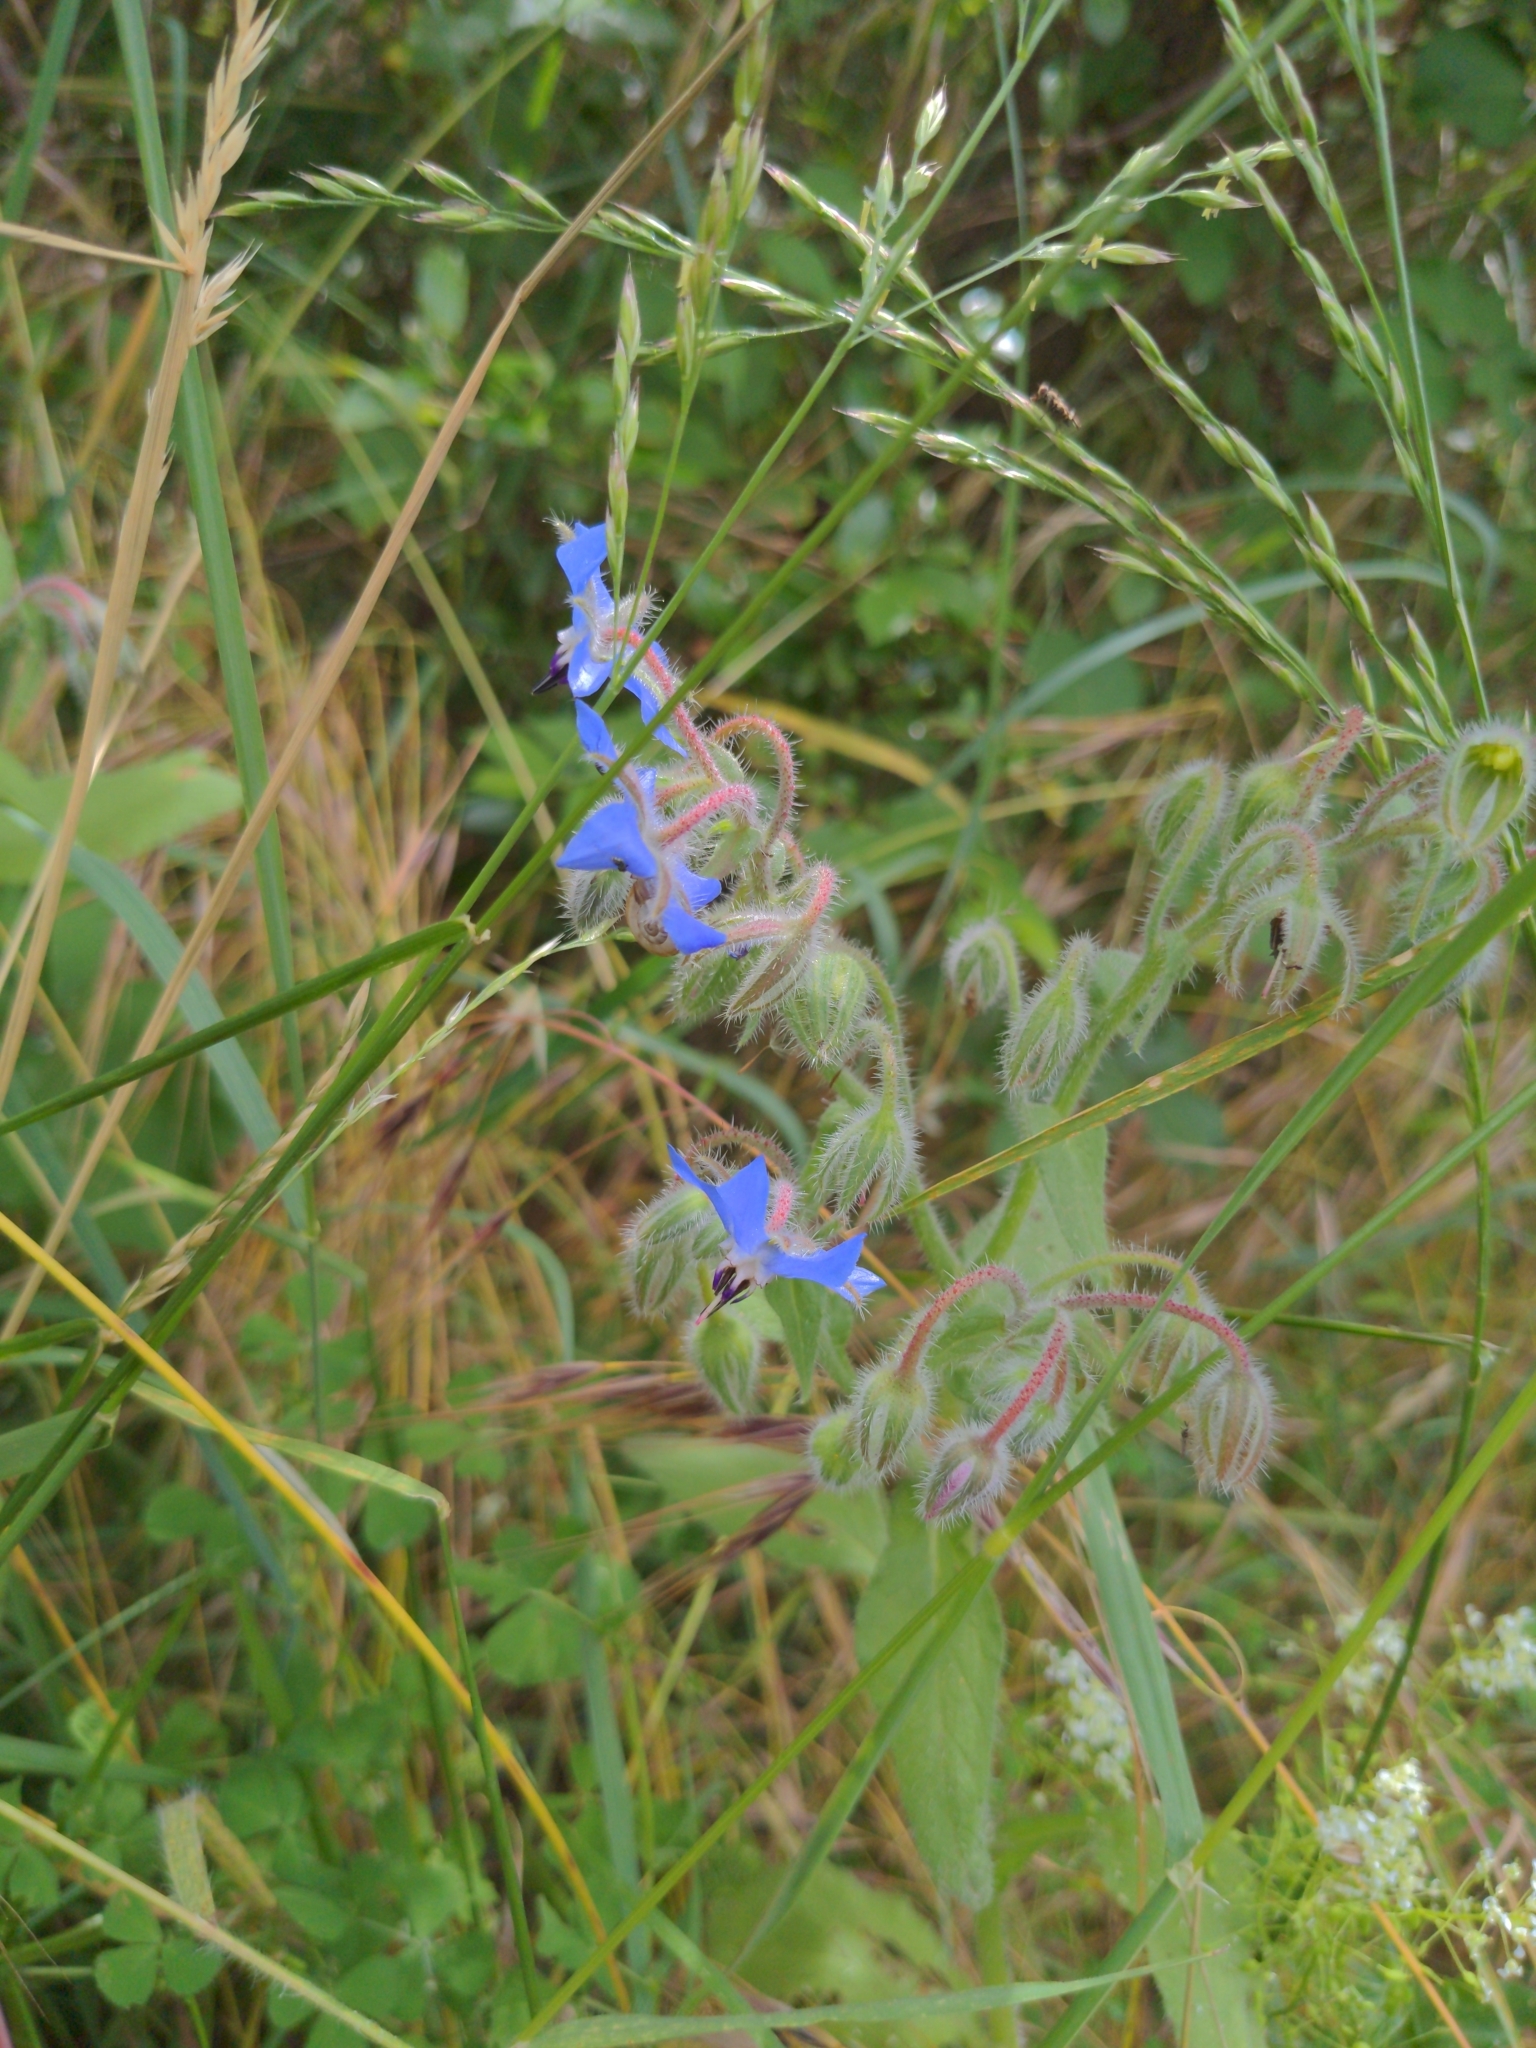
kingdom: Plantae
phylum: Tracheophyta
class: Magnoliopsida
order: Boraginales
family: Boraginaceae
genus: Borago
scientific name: Borago officinalis
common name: Borage
